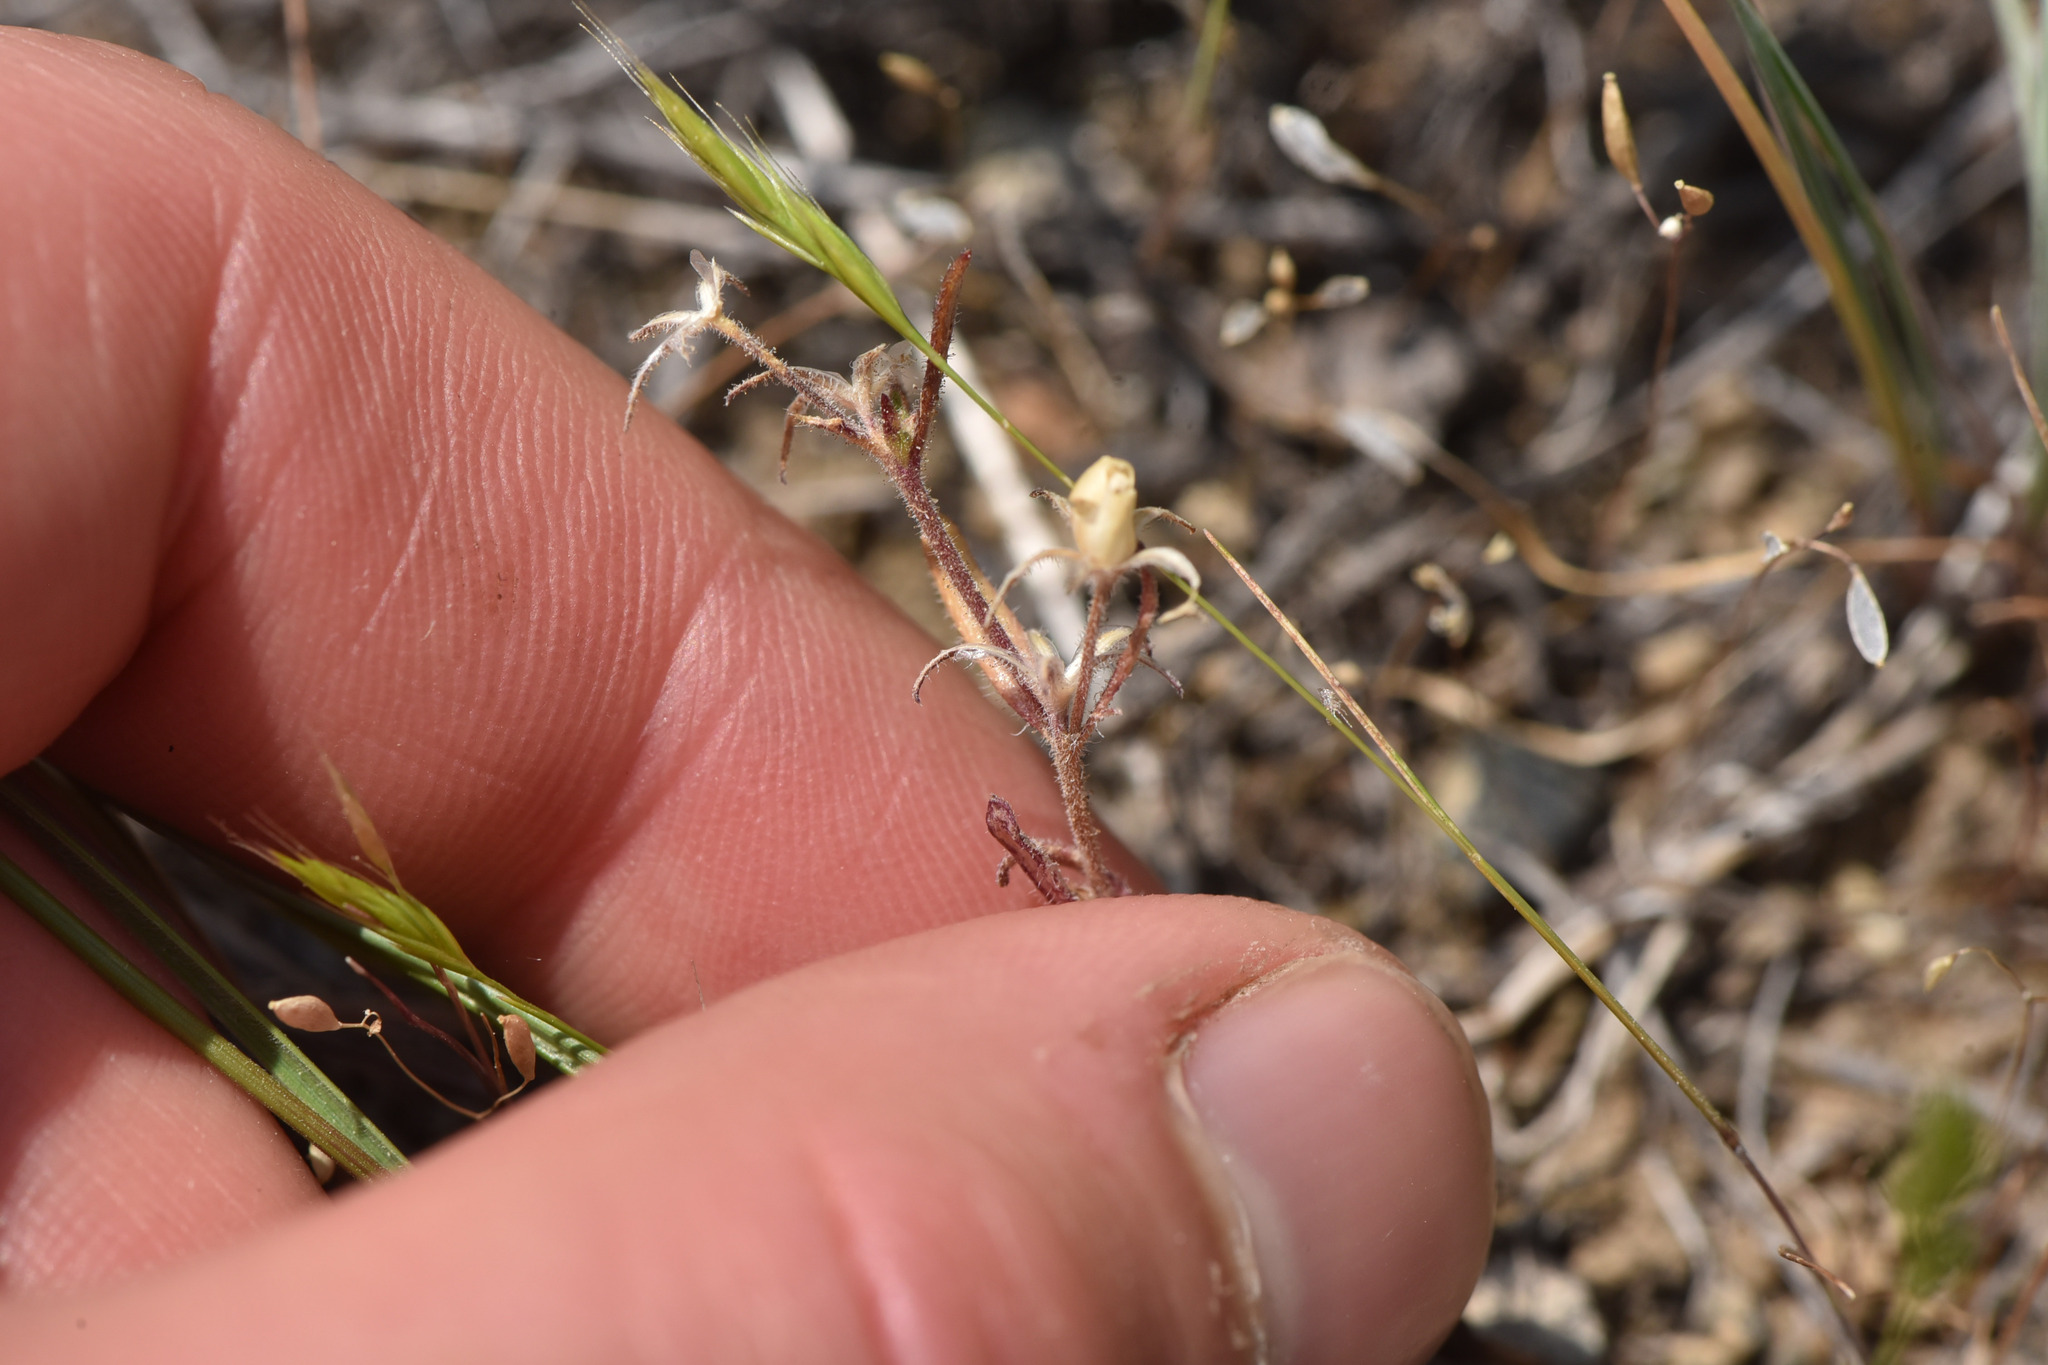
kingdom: Plantae
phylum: Tracheophyta
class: Magnoliopsida
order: Ericales
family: Polemoniaceae
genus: Phlox
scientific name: Phlox gracilis
